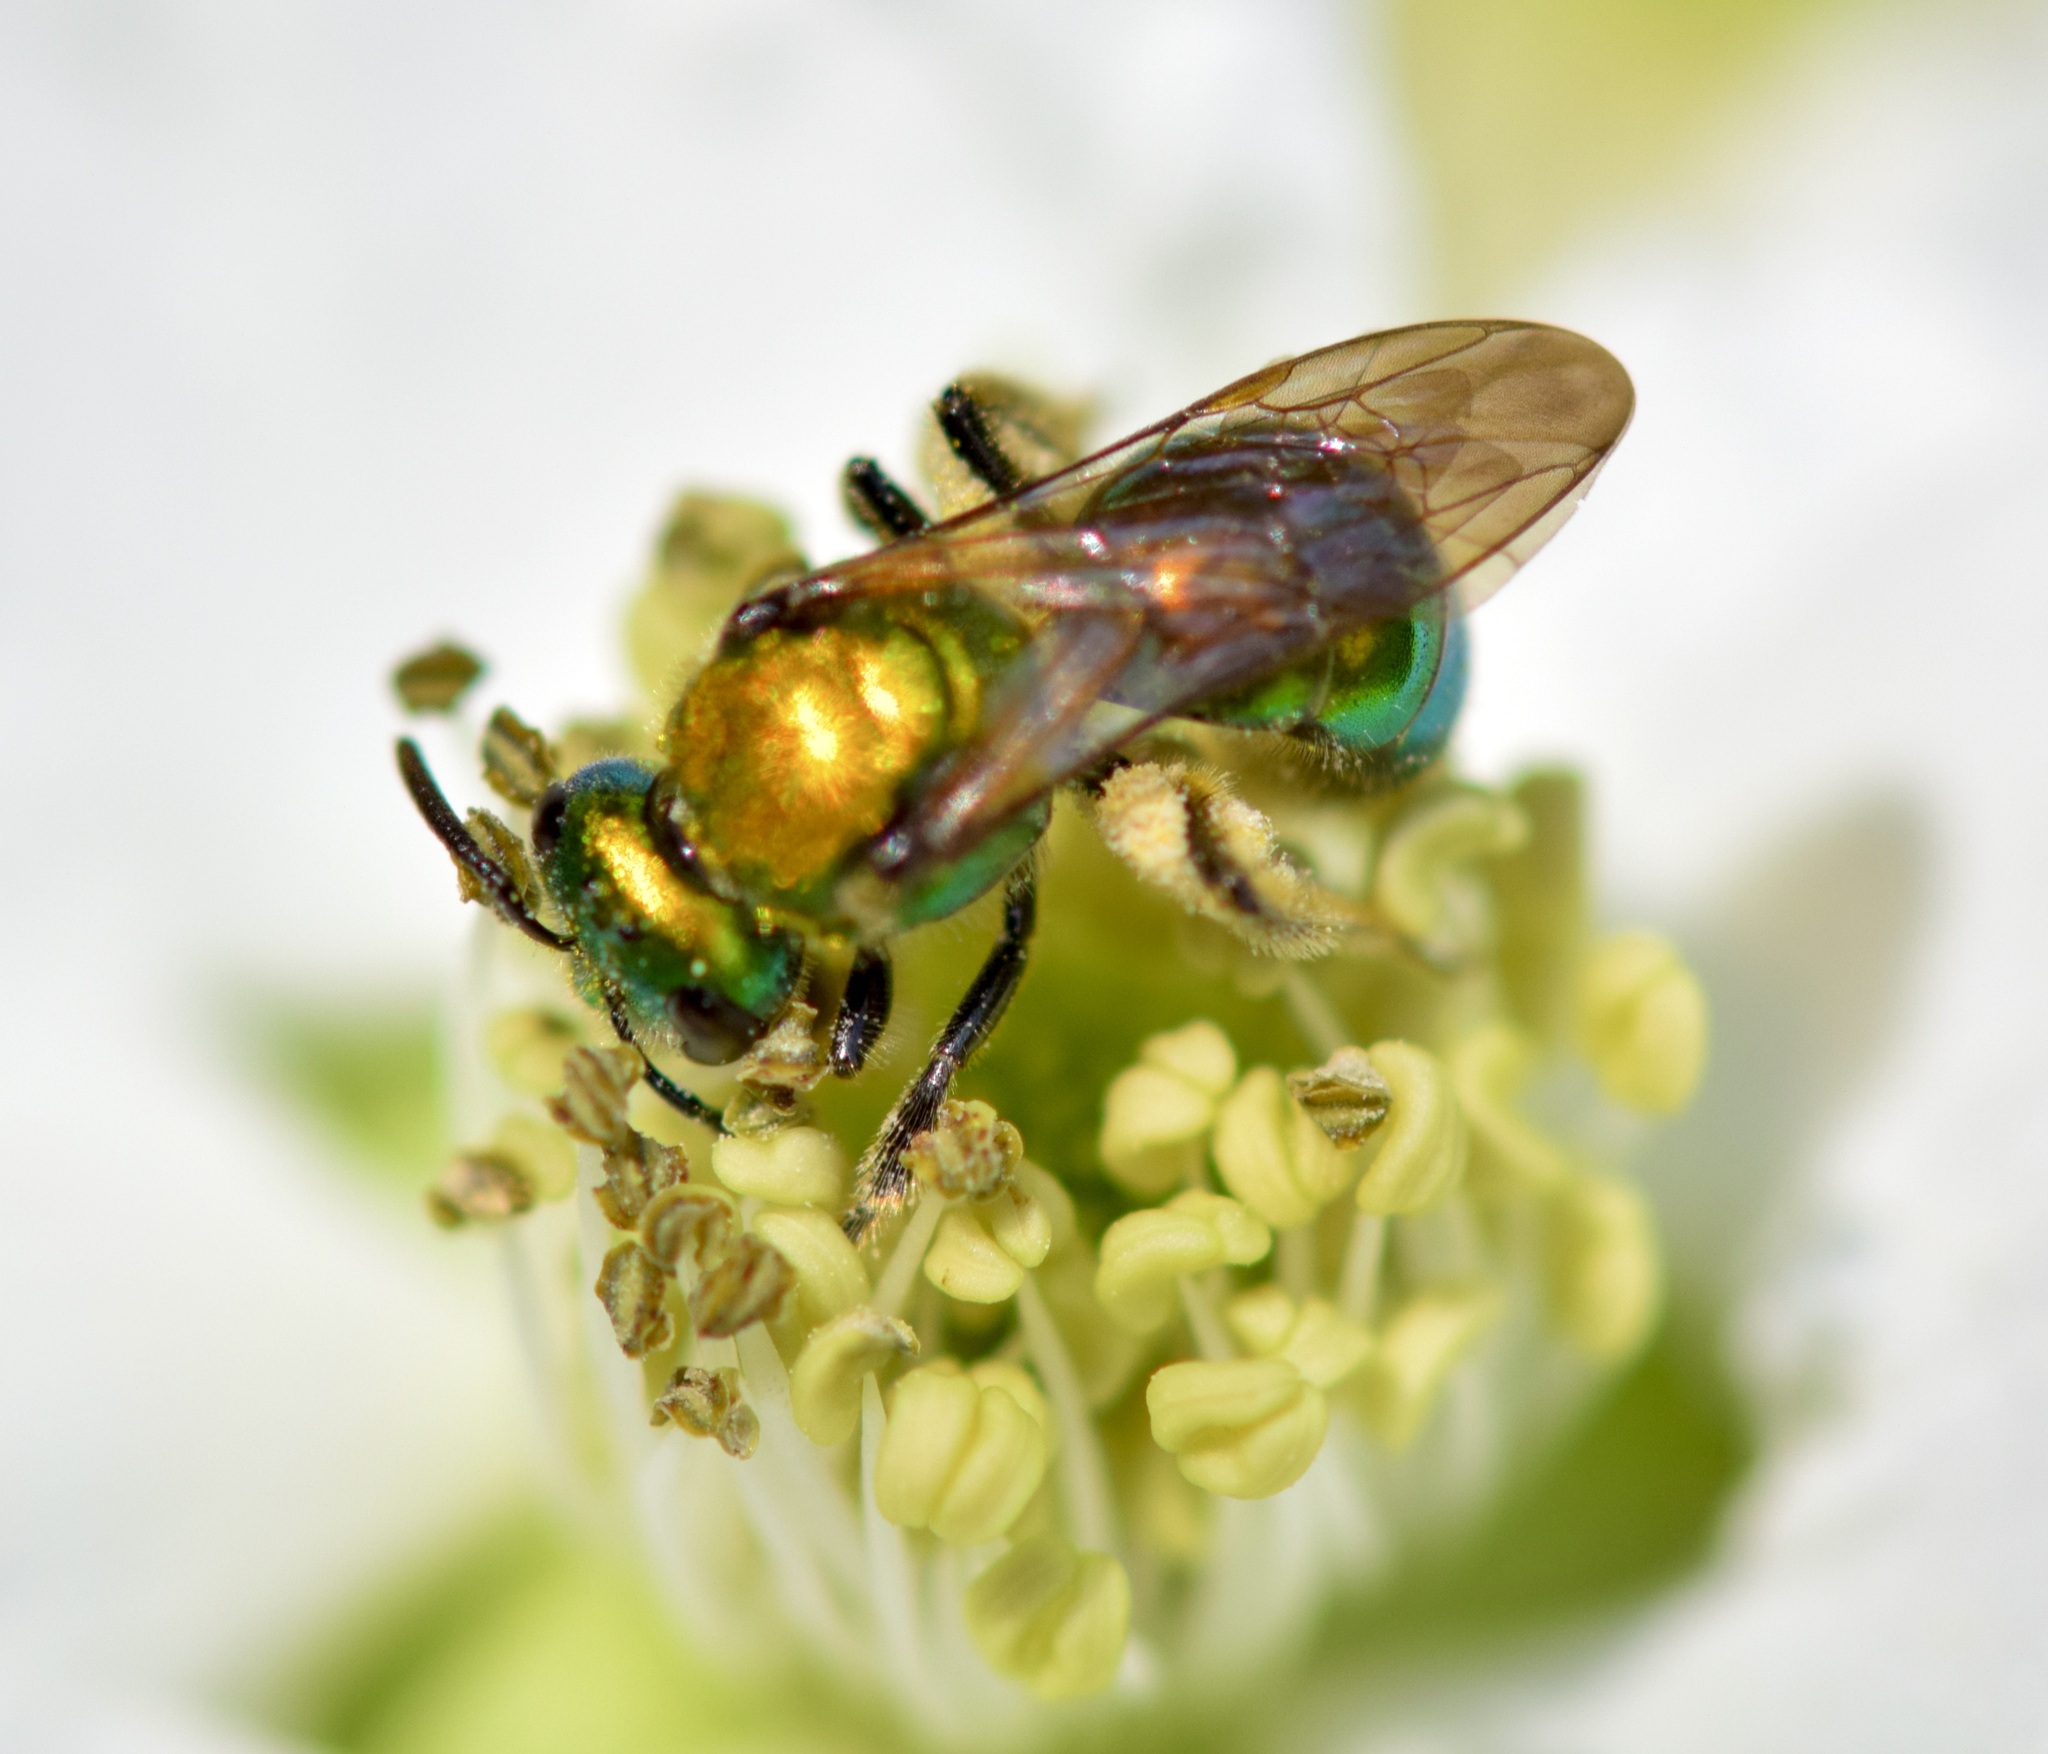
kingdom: Animalia
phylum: Arthropoda
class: Insecta
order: Hymenoptera
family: Halictidae
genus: Augochlora
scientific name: Augochlora pura
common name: Pure green sweat bee
